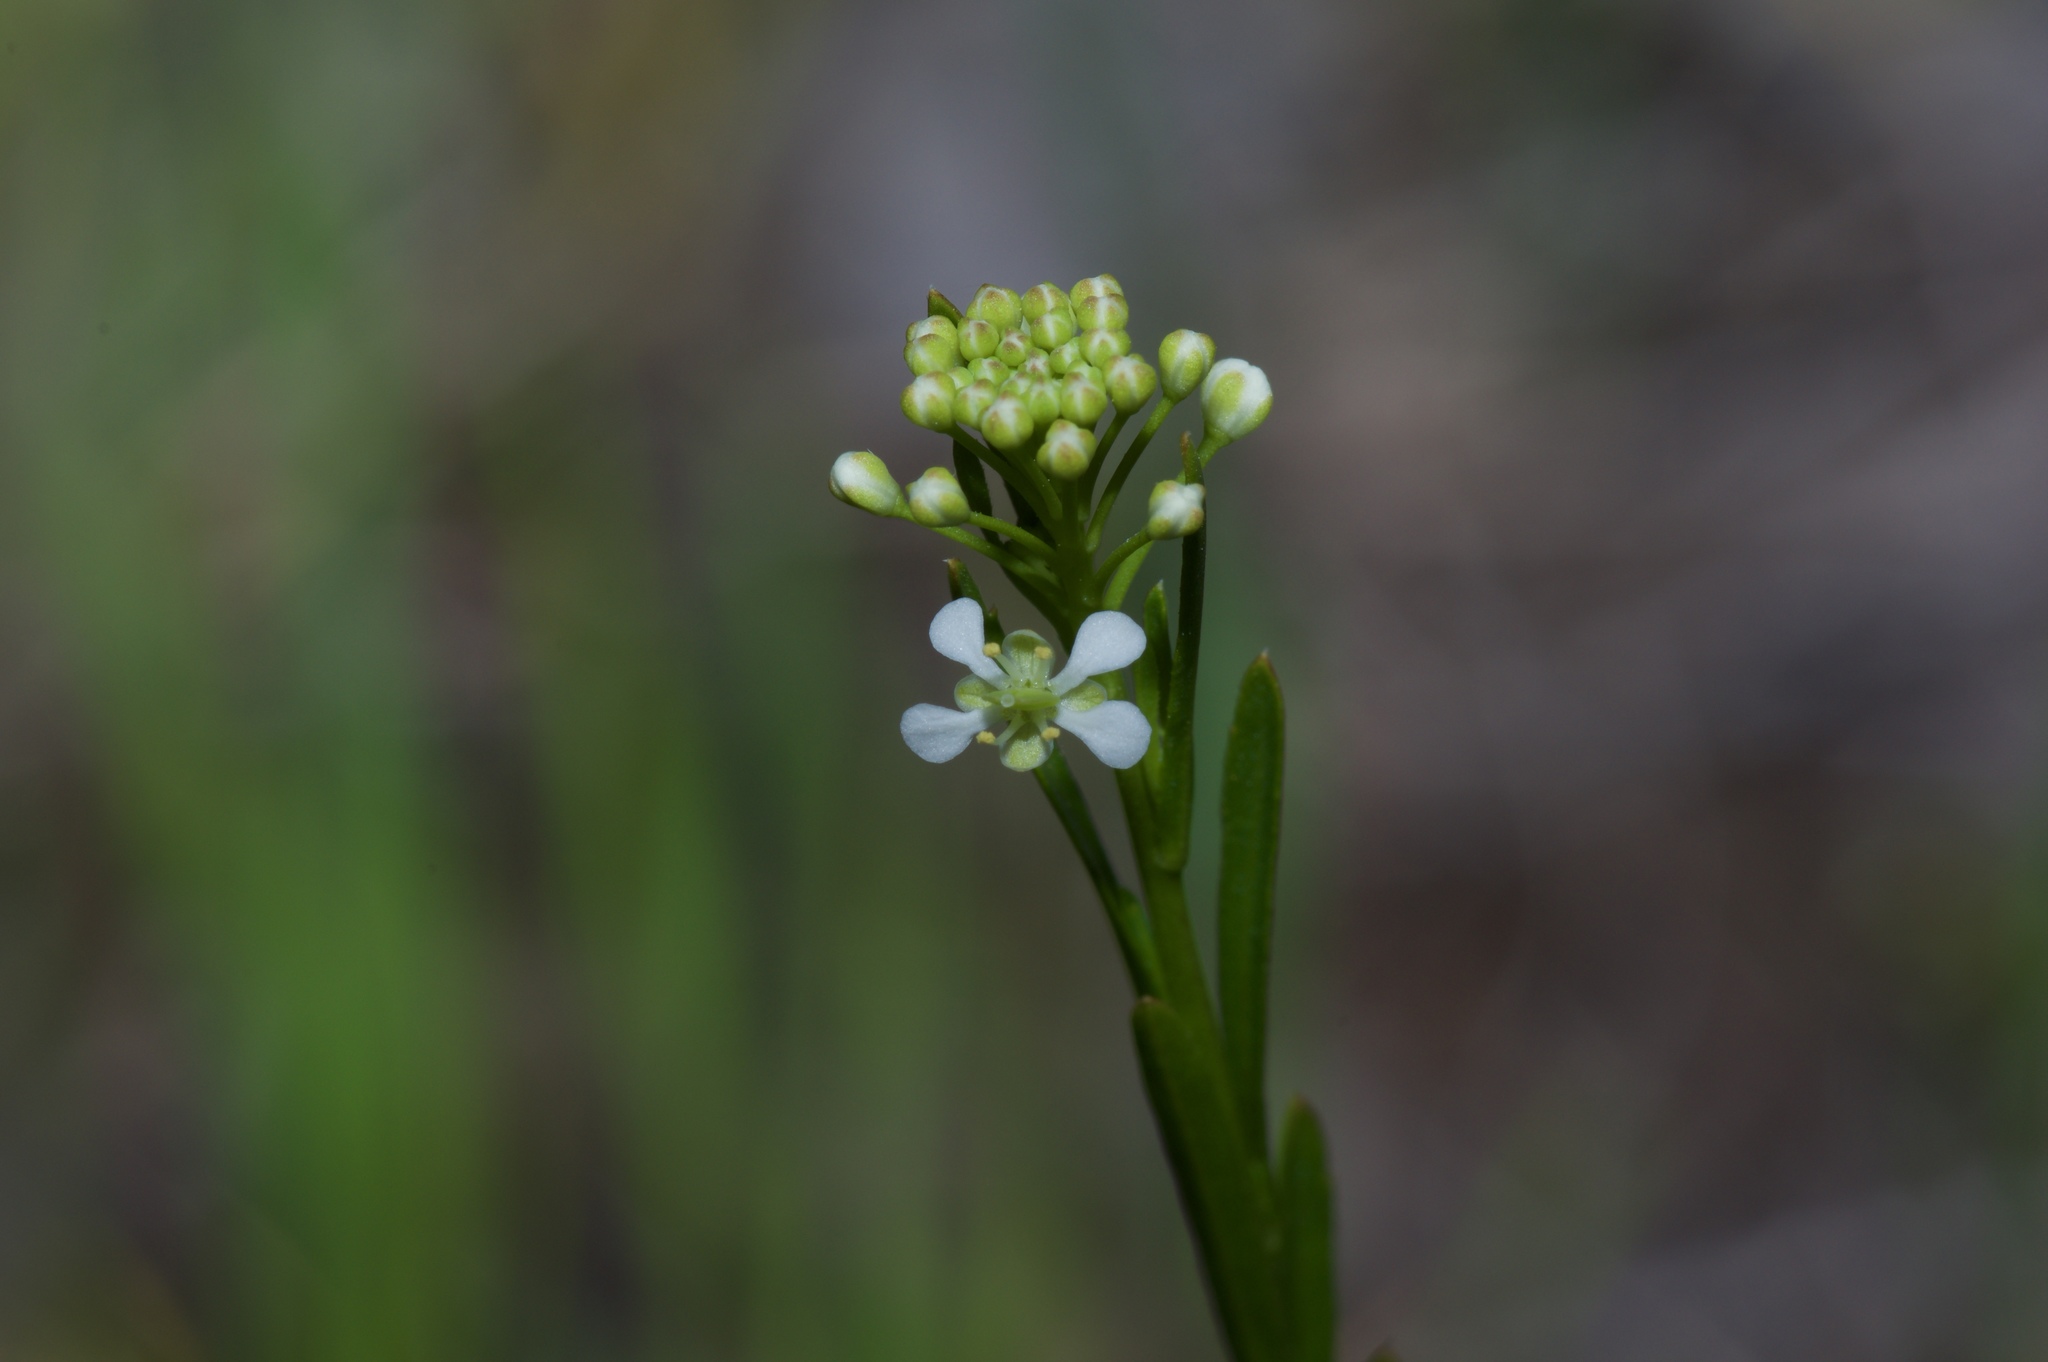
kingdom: Plantae
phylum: Tracheophyta
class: Magnoliopsida
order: Brassicales
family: Brassicaceae
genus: Lepidium
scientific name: Lepidium virginicum
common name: Least pepperwort
